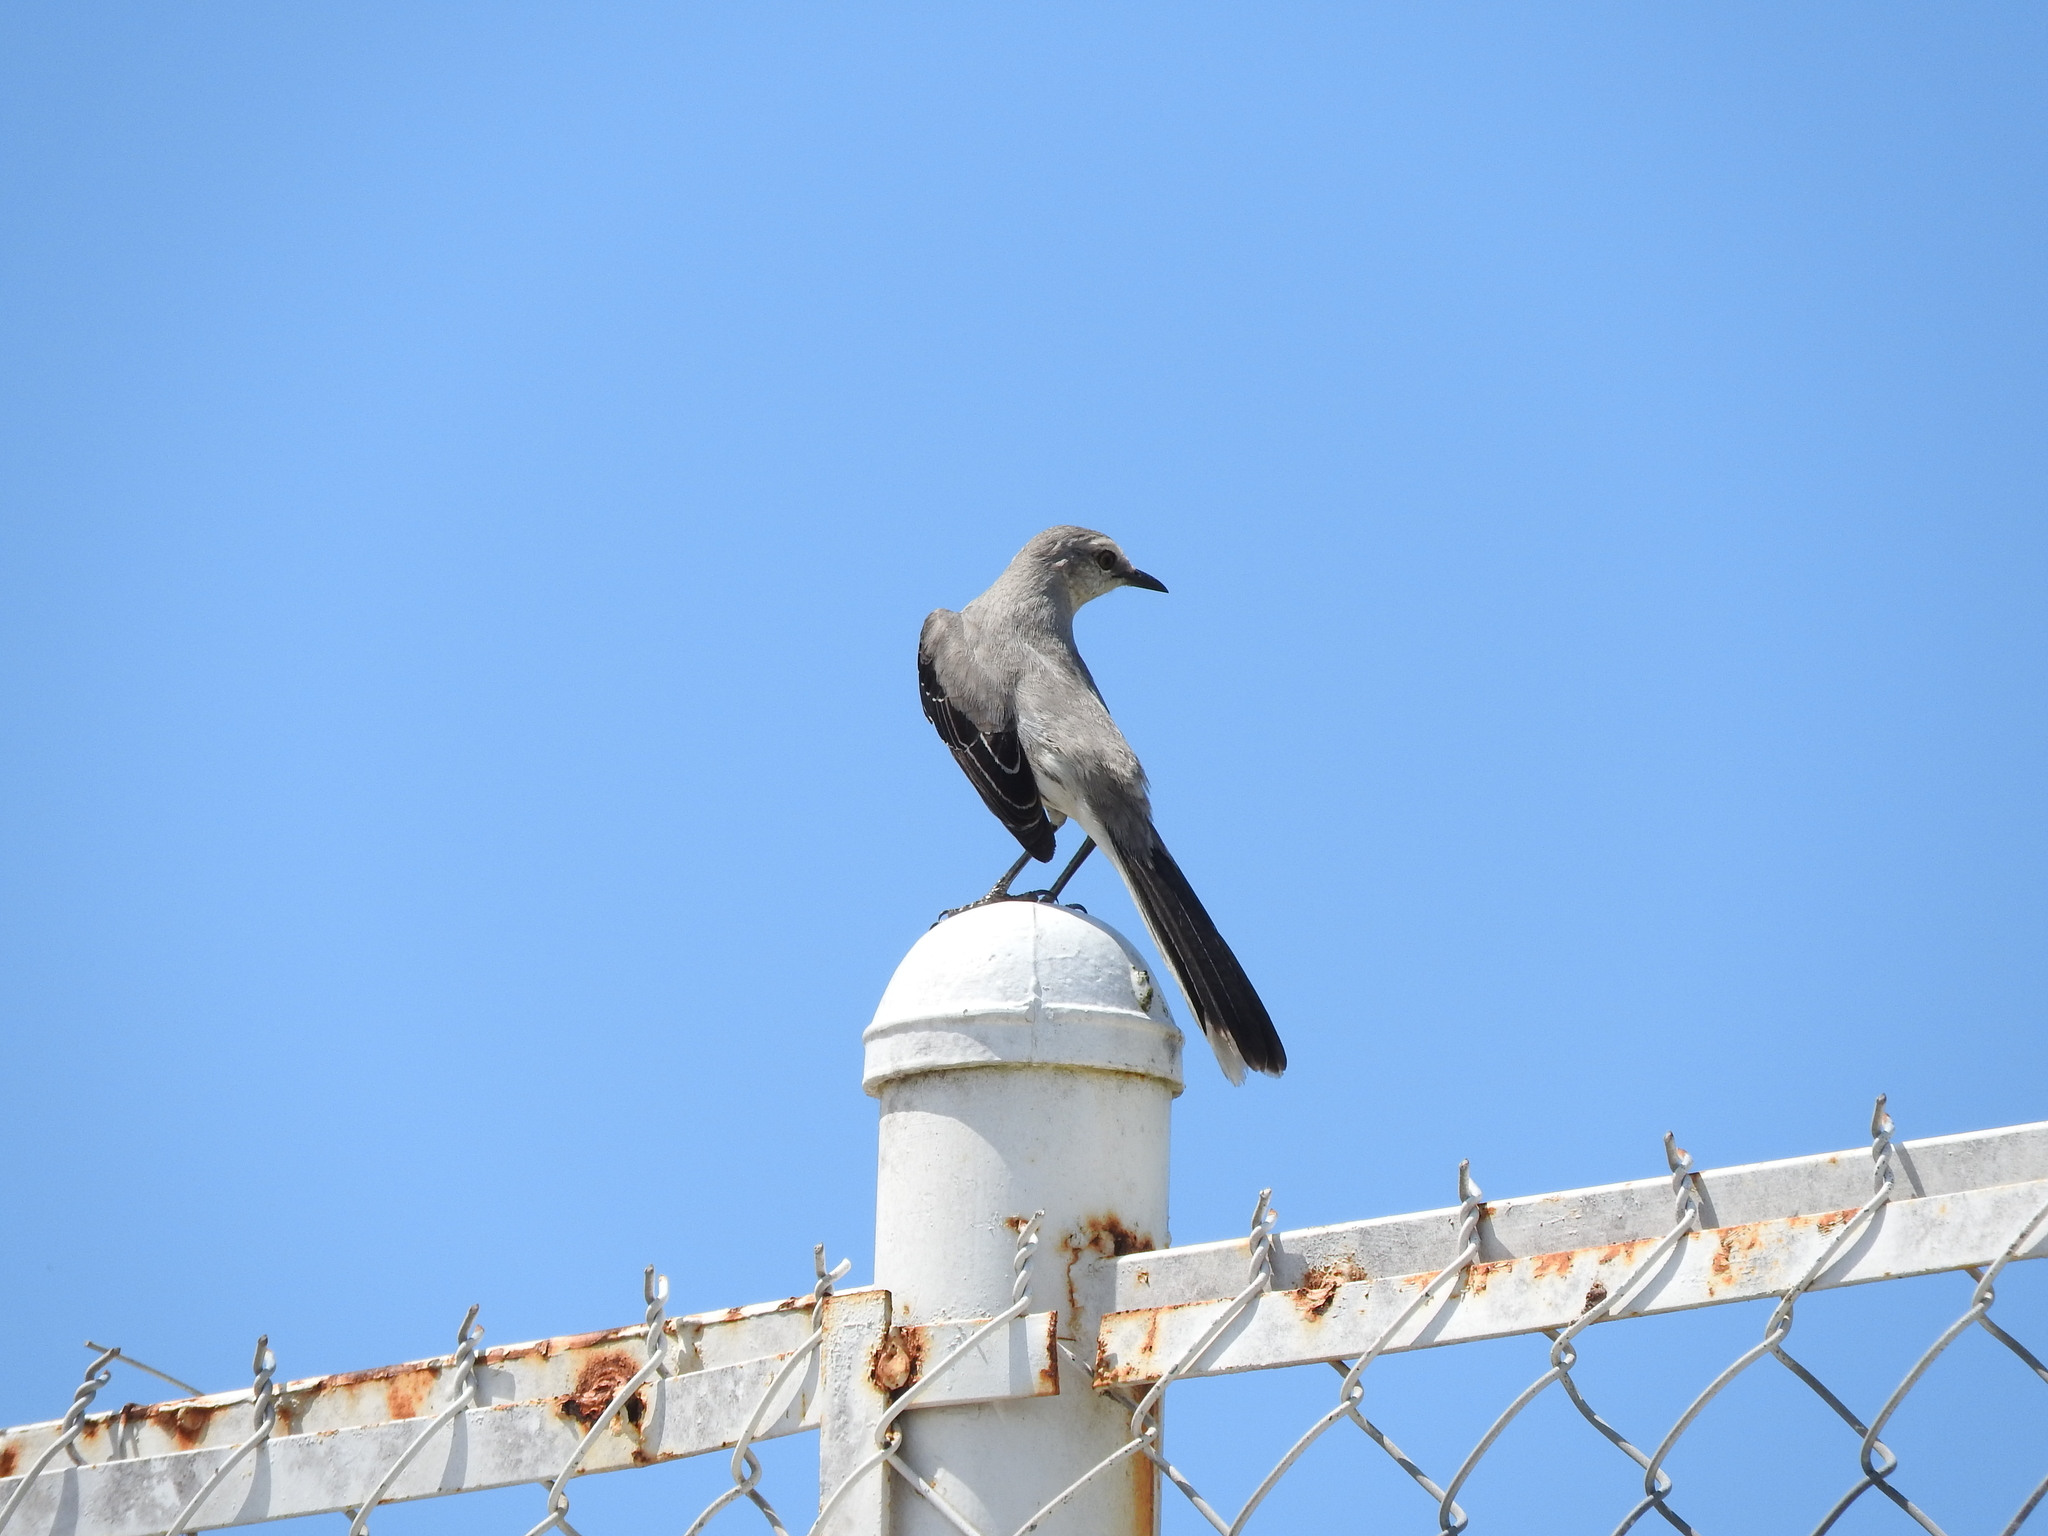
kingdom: Animalia
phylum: Chordata
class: Aves
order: Passeriformes
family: Mimidae
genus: Mimus
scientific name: Mimus gilvus
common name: Tropical mockingbird
